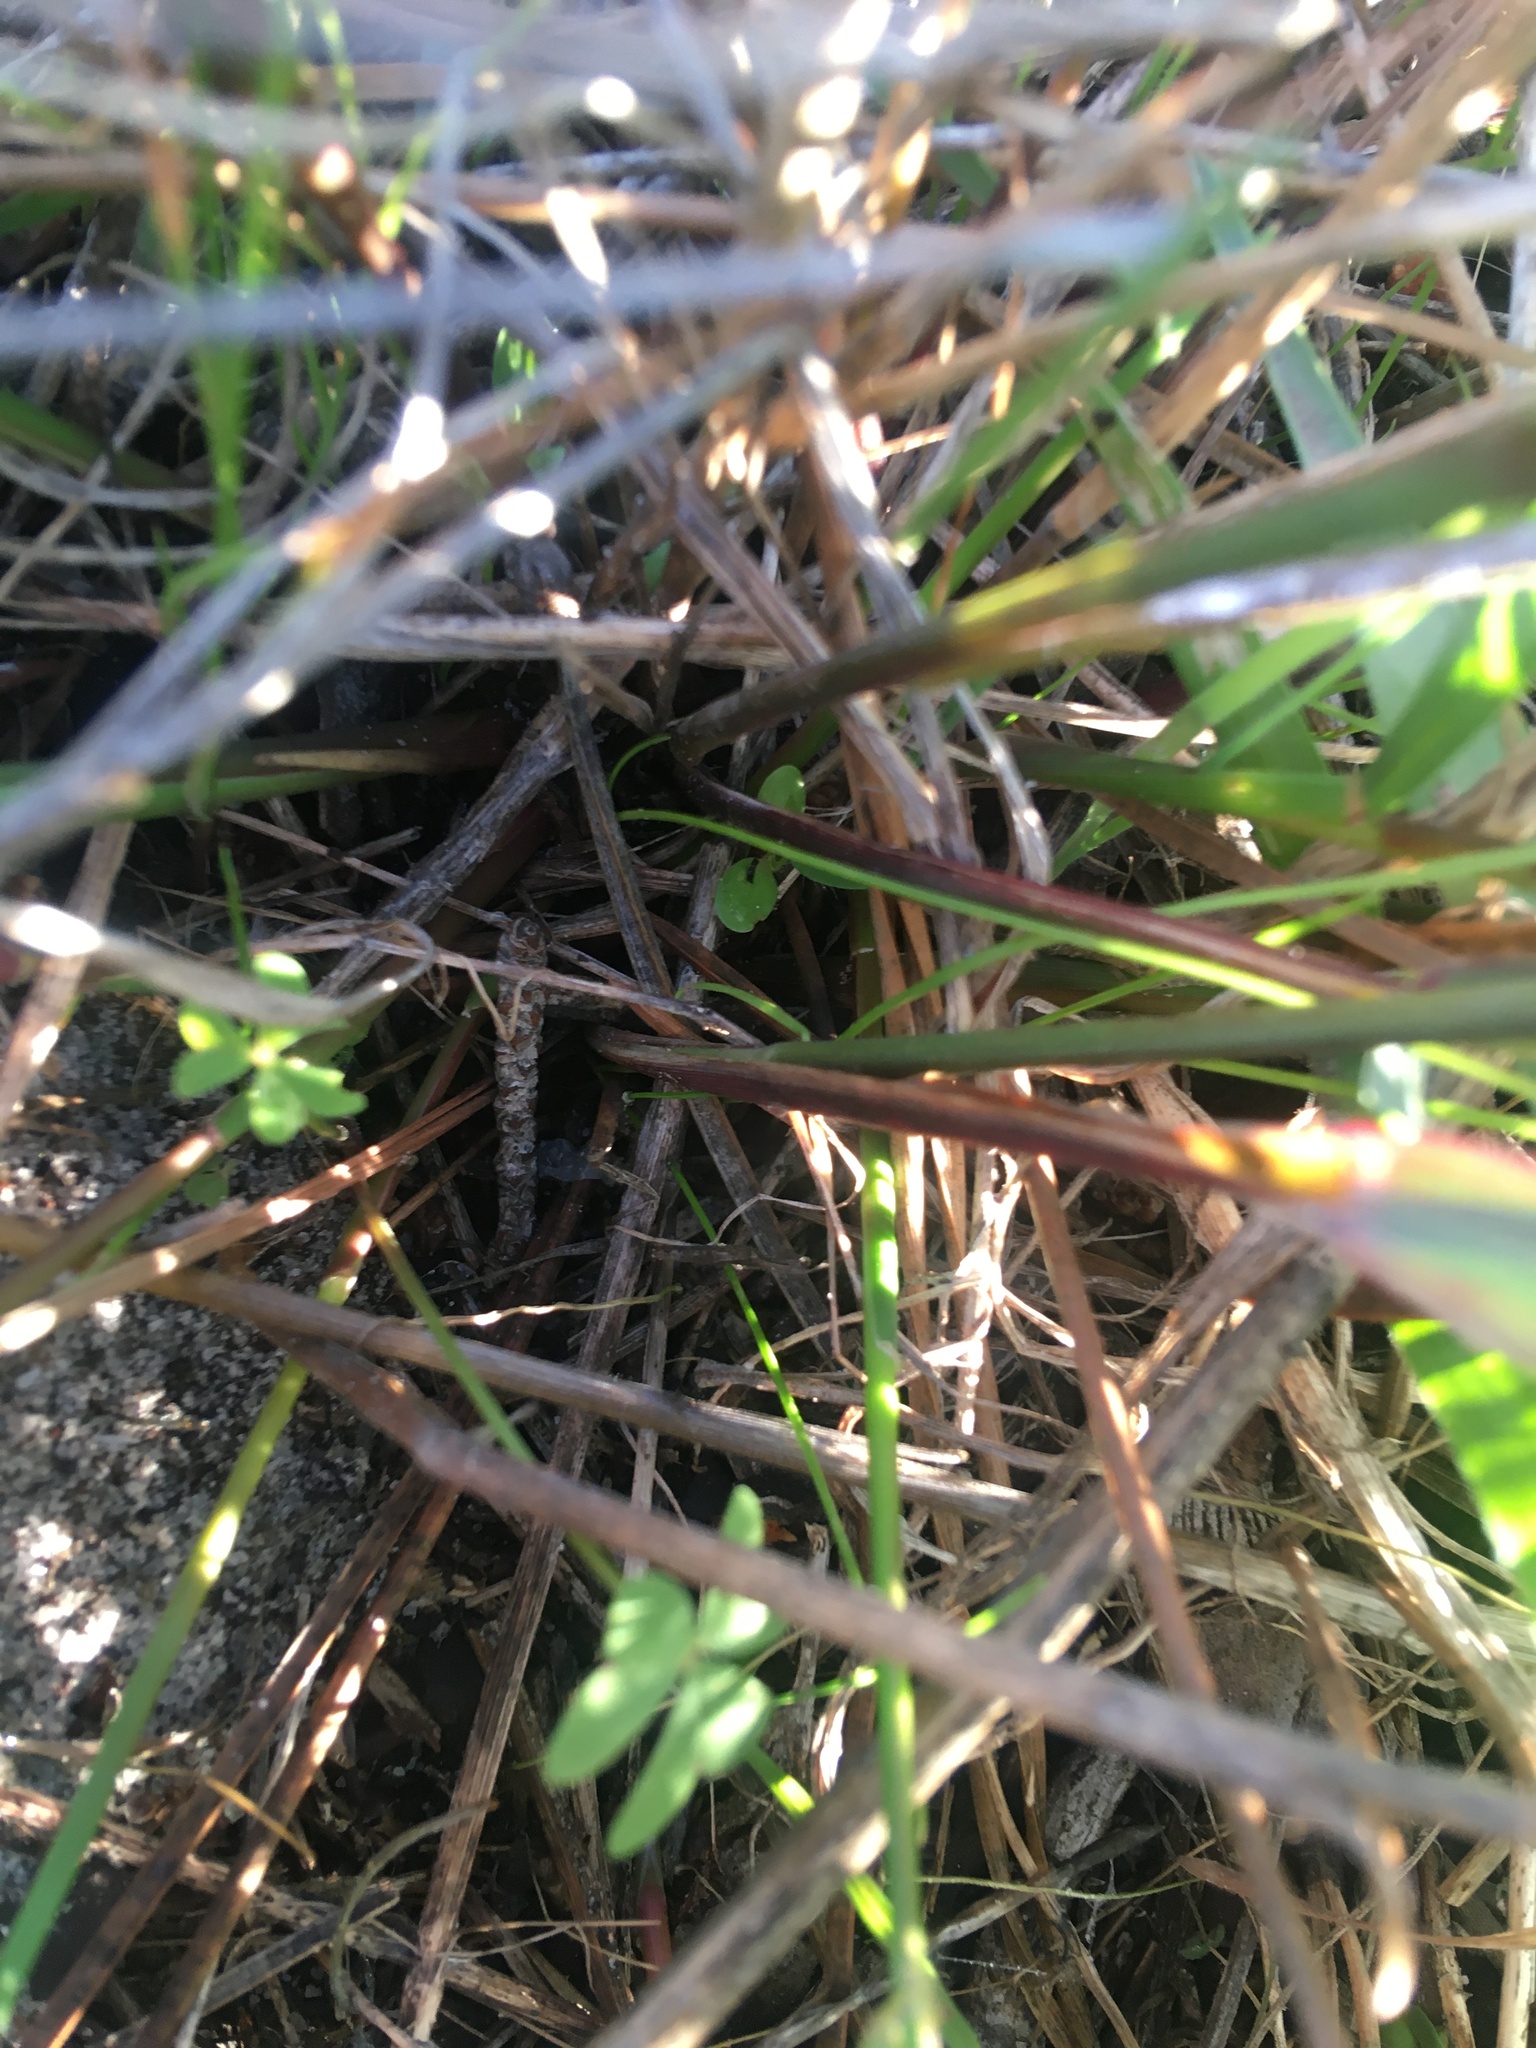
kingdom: Plantae
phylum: Tracheophyta
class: Liliopsida
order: Poales
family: Poaceae
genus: Ehrharta
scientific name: Ehrharta calycina
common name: Perennial veldtgrass
